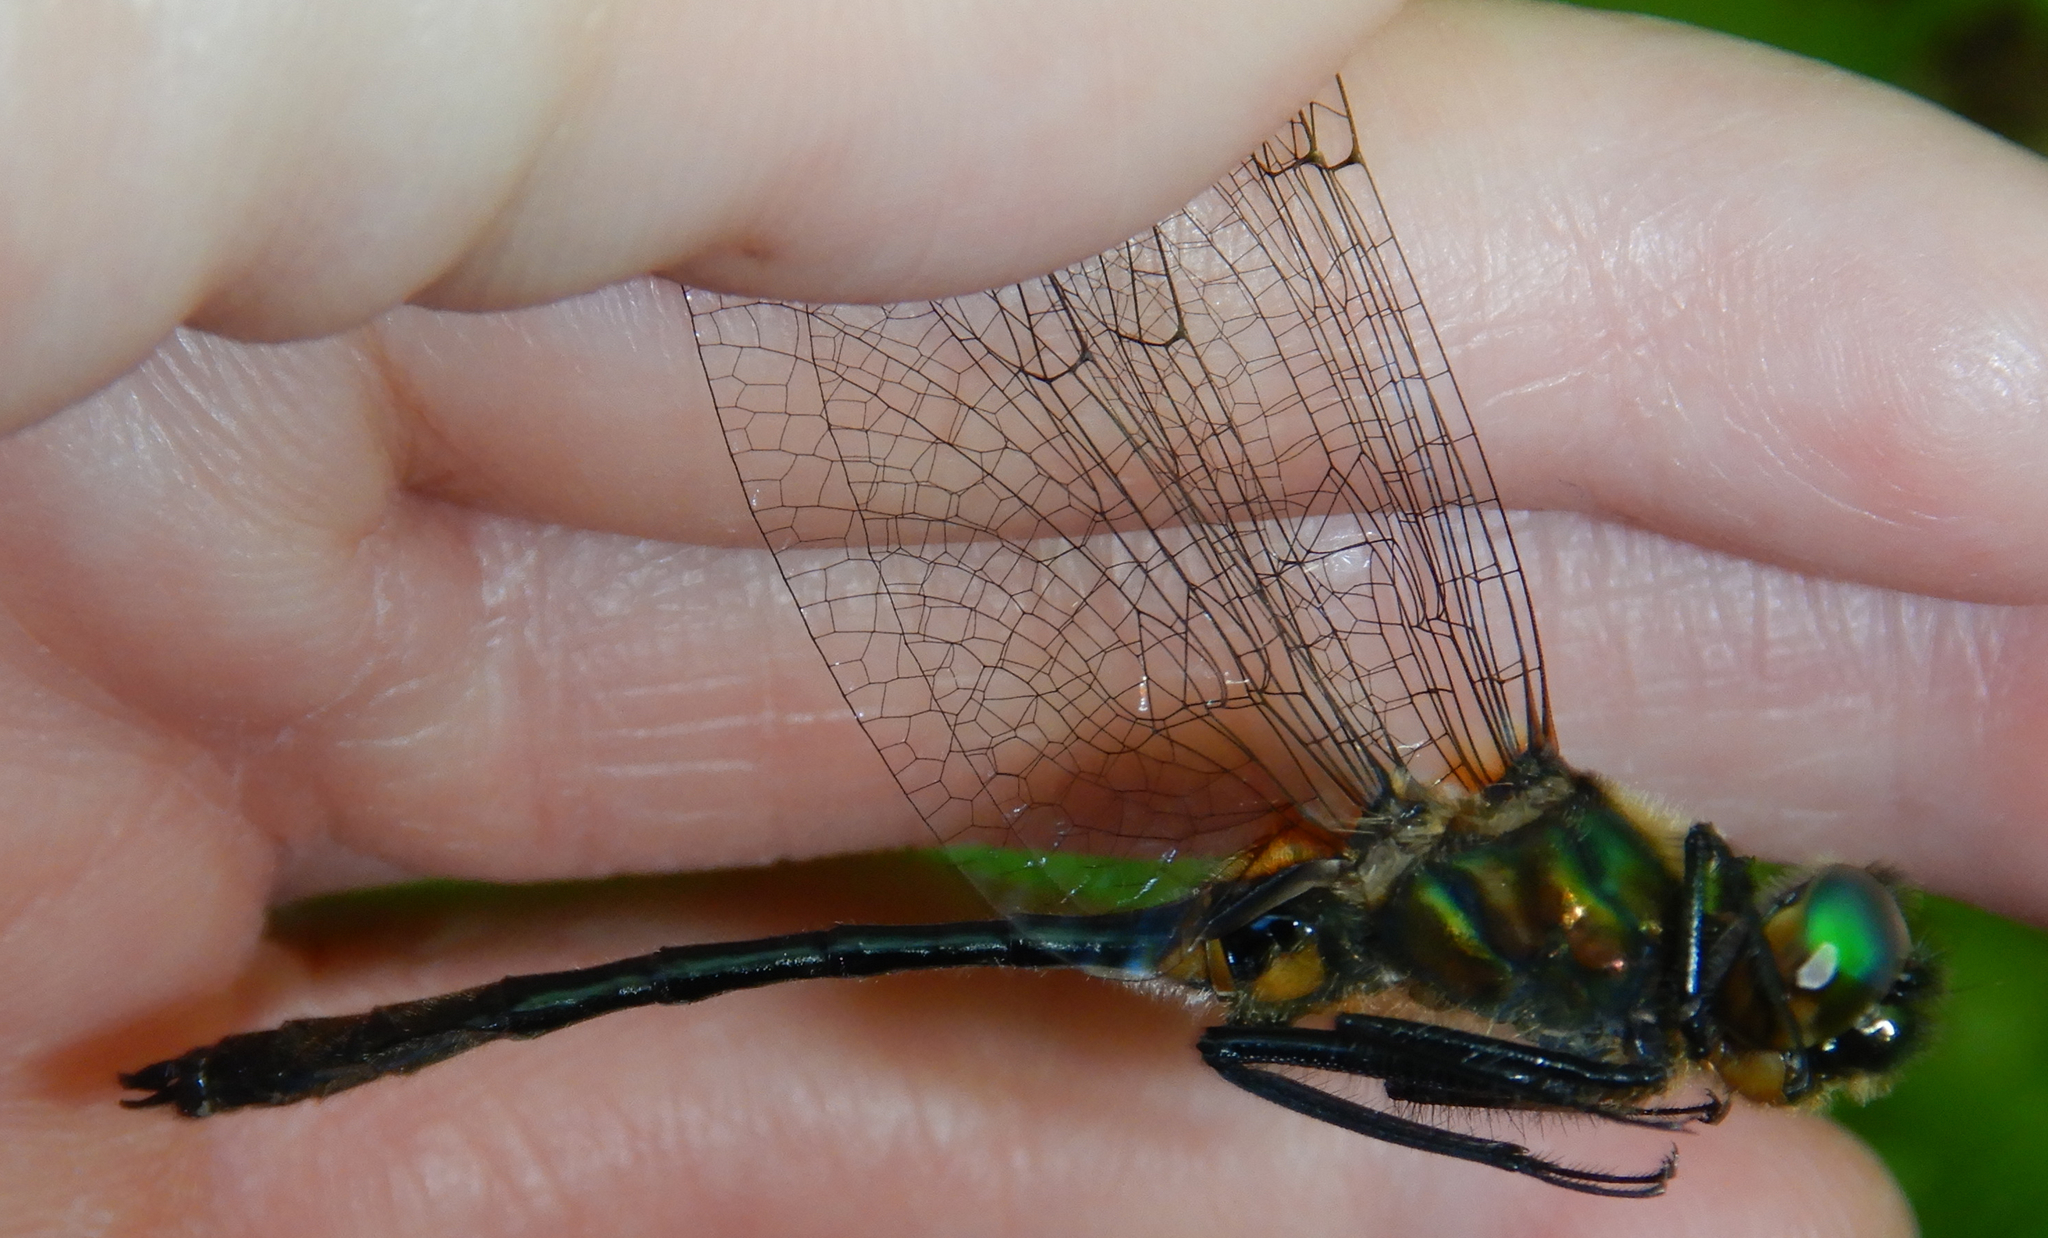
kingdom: Animalia
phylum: Arthropoda
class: Insecta
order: Odonata
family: Corduliidae
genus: Dorocordulia
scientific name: Dorocordulia libera
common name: Racket-tailed emerald
